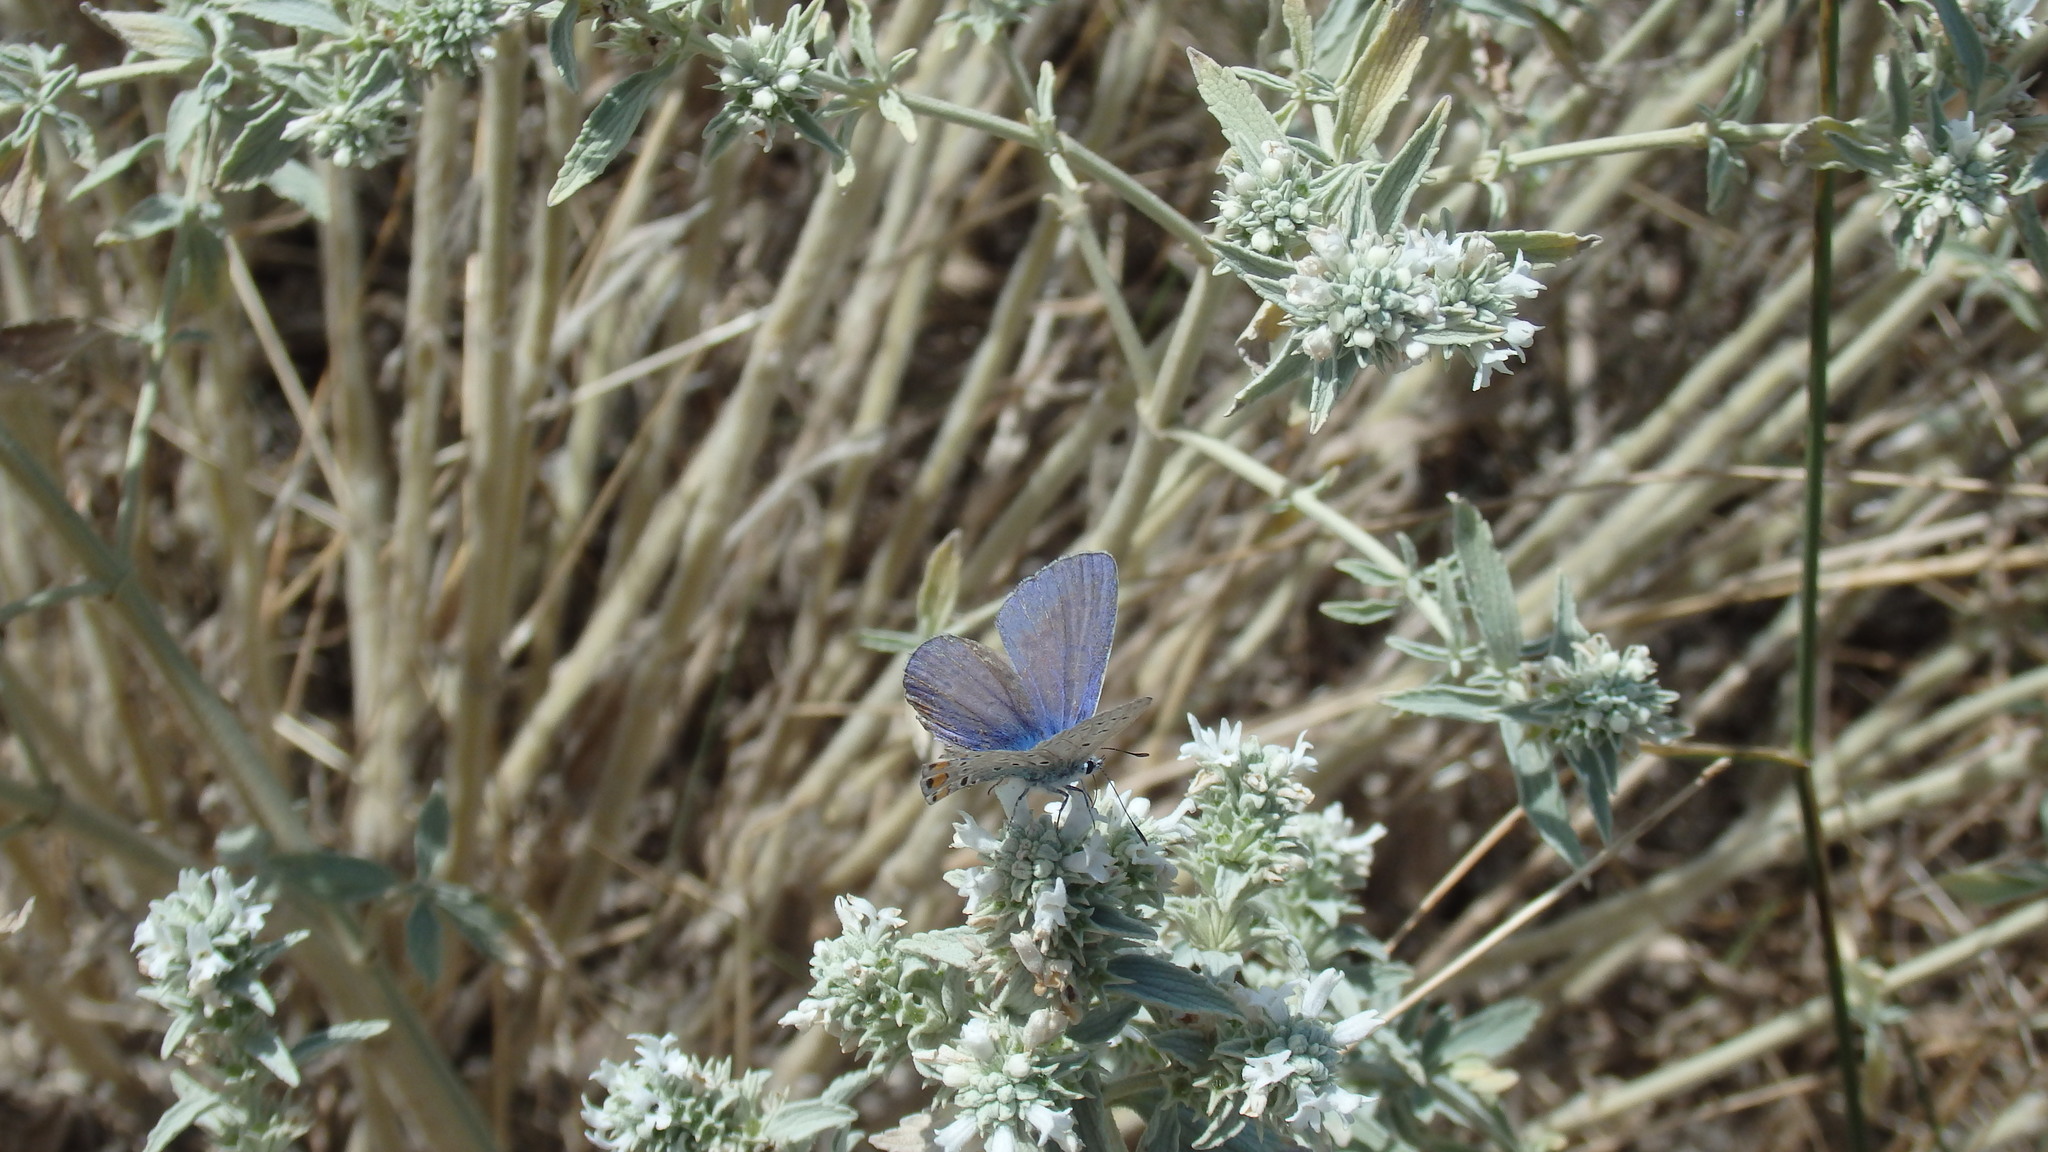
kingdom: Animalia
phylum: Arthropoda
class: Insecta
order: Lepidoptera
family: Lycaenidae
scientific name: Lycaenidae
